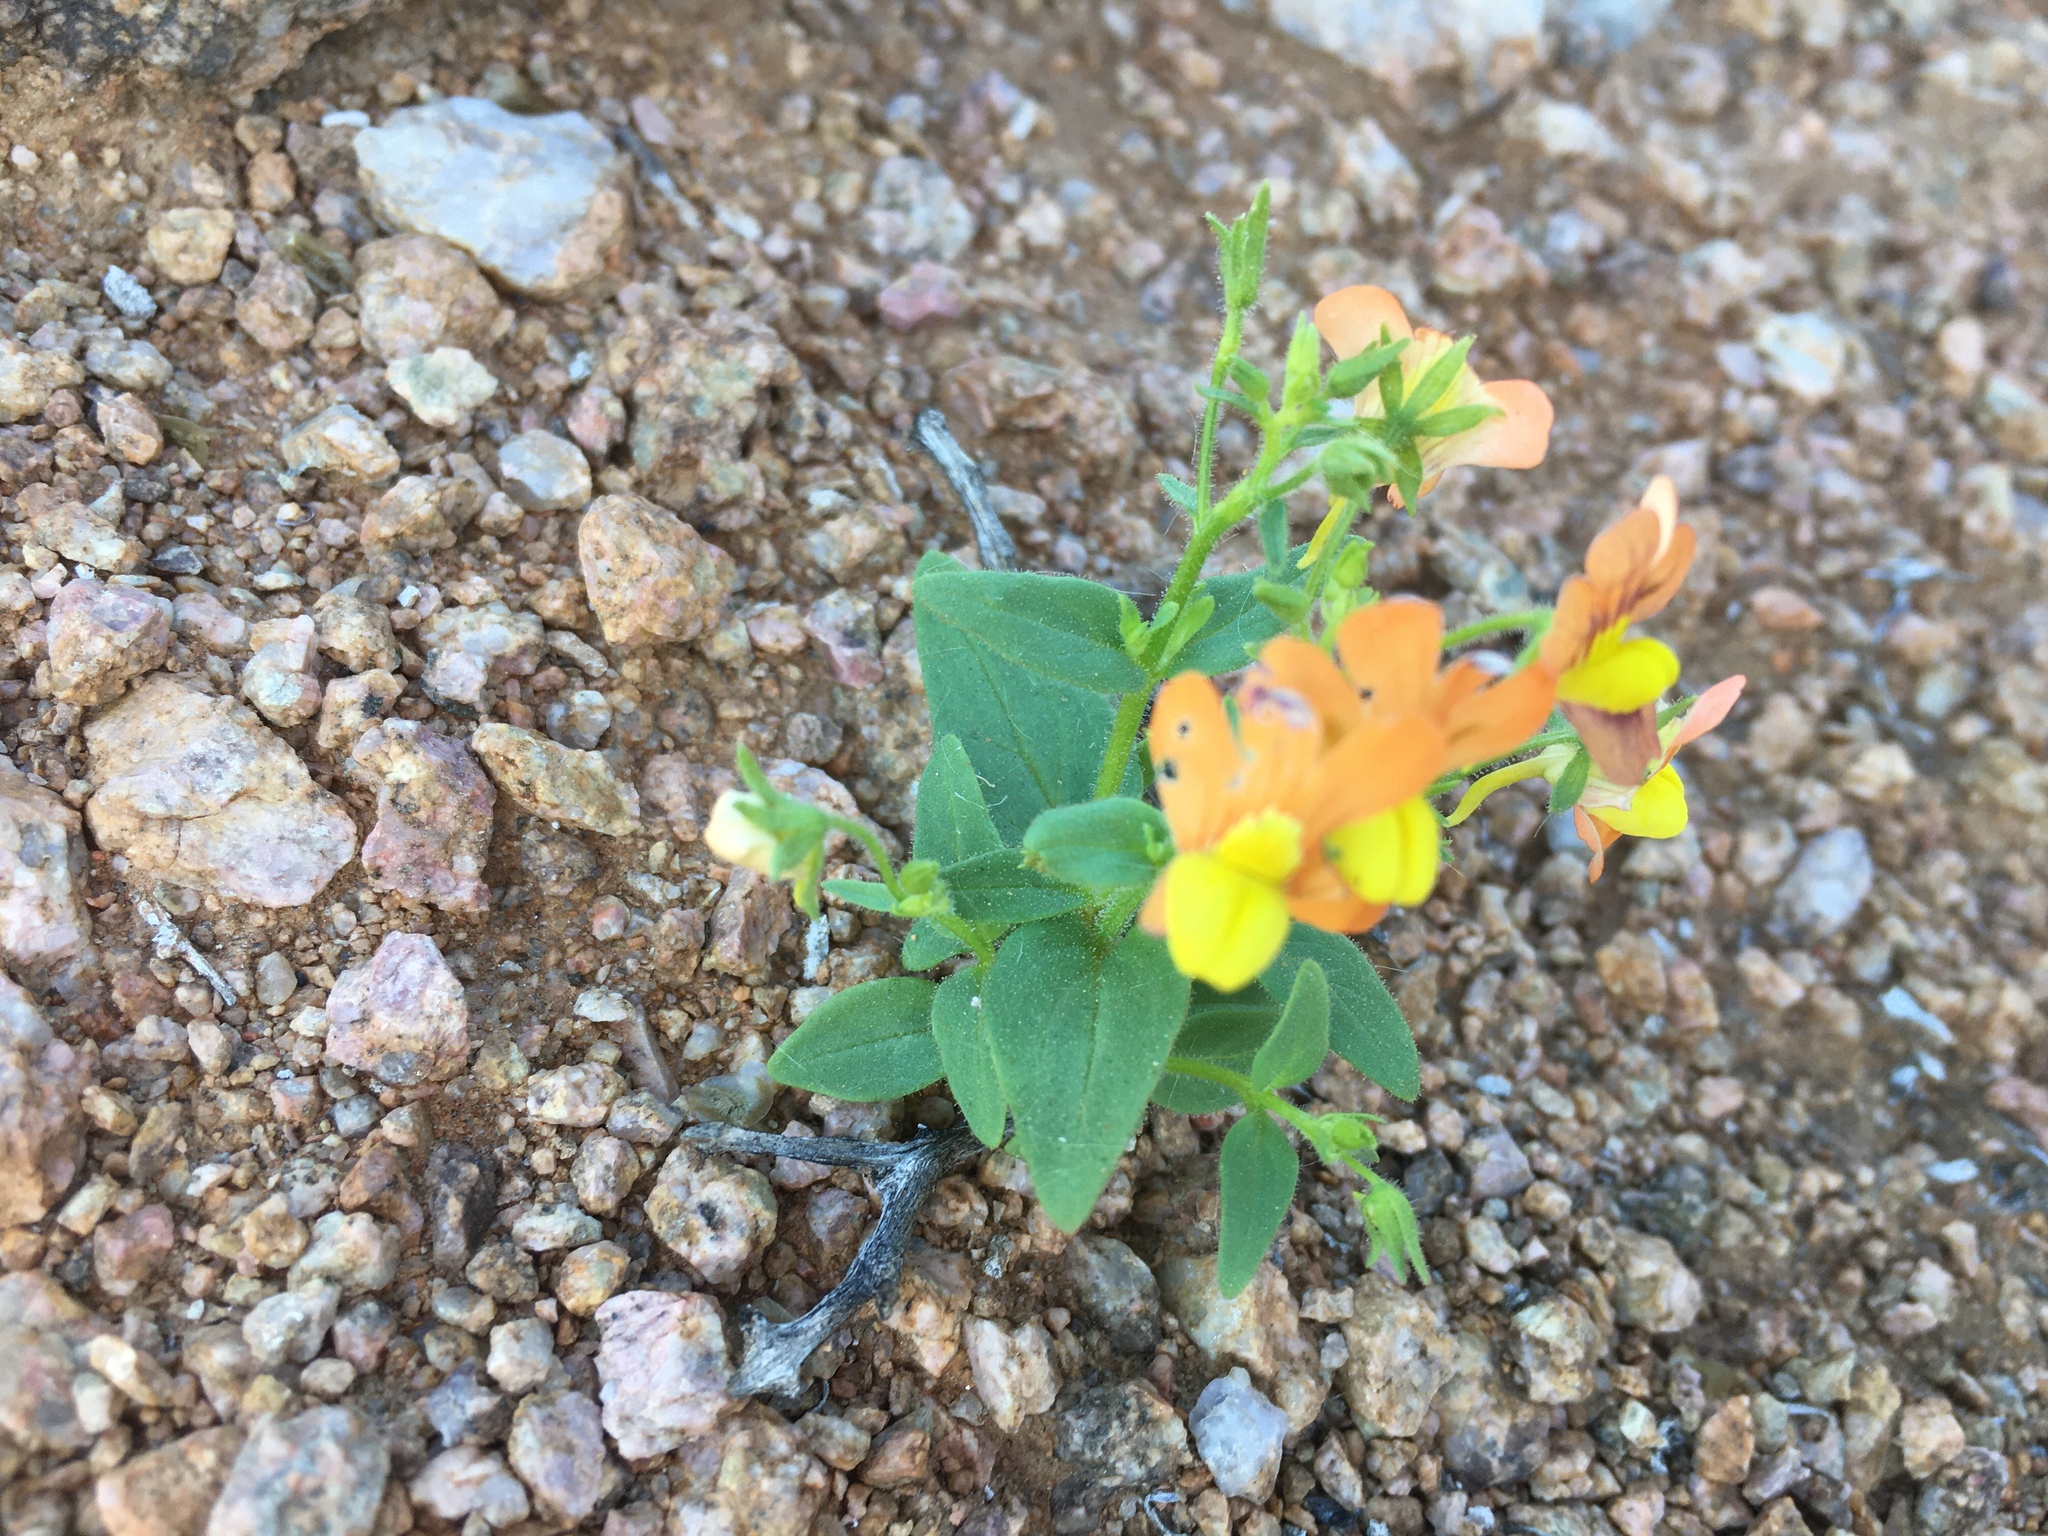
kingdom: Plantae
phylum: Tracheophyta
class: Magnoliopsida
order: Lamiales
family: Scrophulariaceae
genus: Nemesia
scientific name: Nemesia williamsonii
